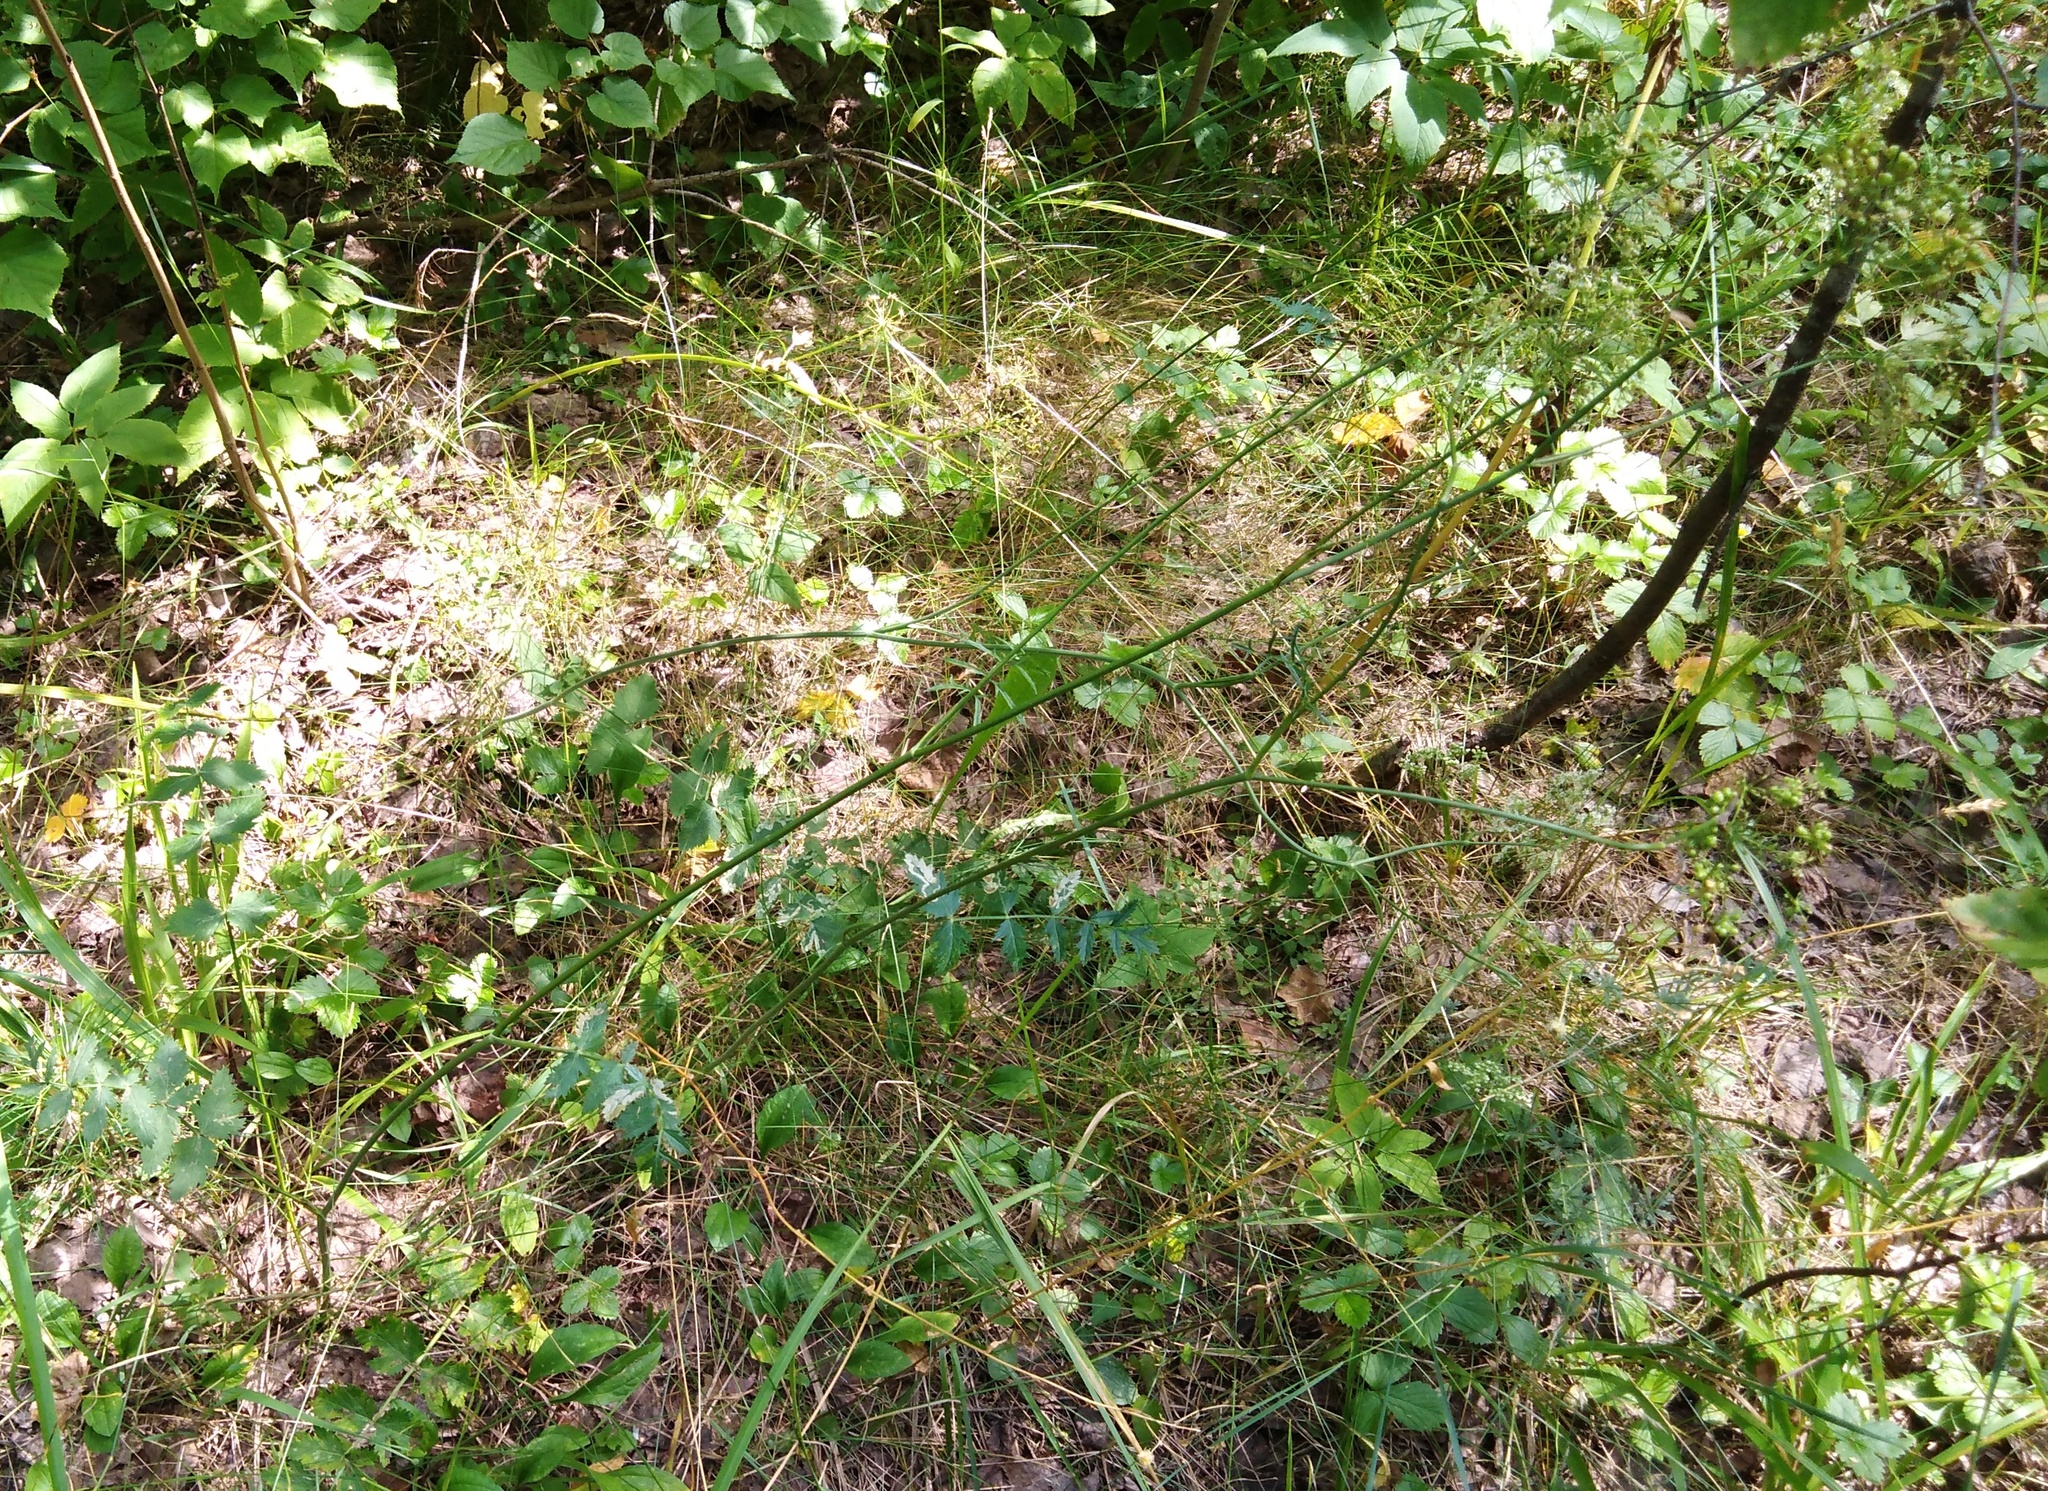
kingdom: Plantae
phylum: Tracheophyta
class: Magnoliopsida
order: Apiales
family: Apiaceae
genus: Pimpinella
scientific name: Pimpinella saxifraga
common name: Burnet-saxifrage
